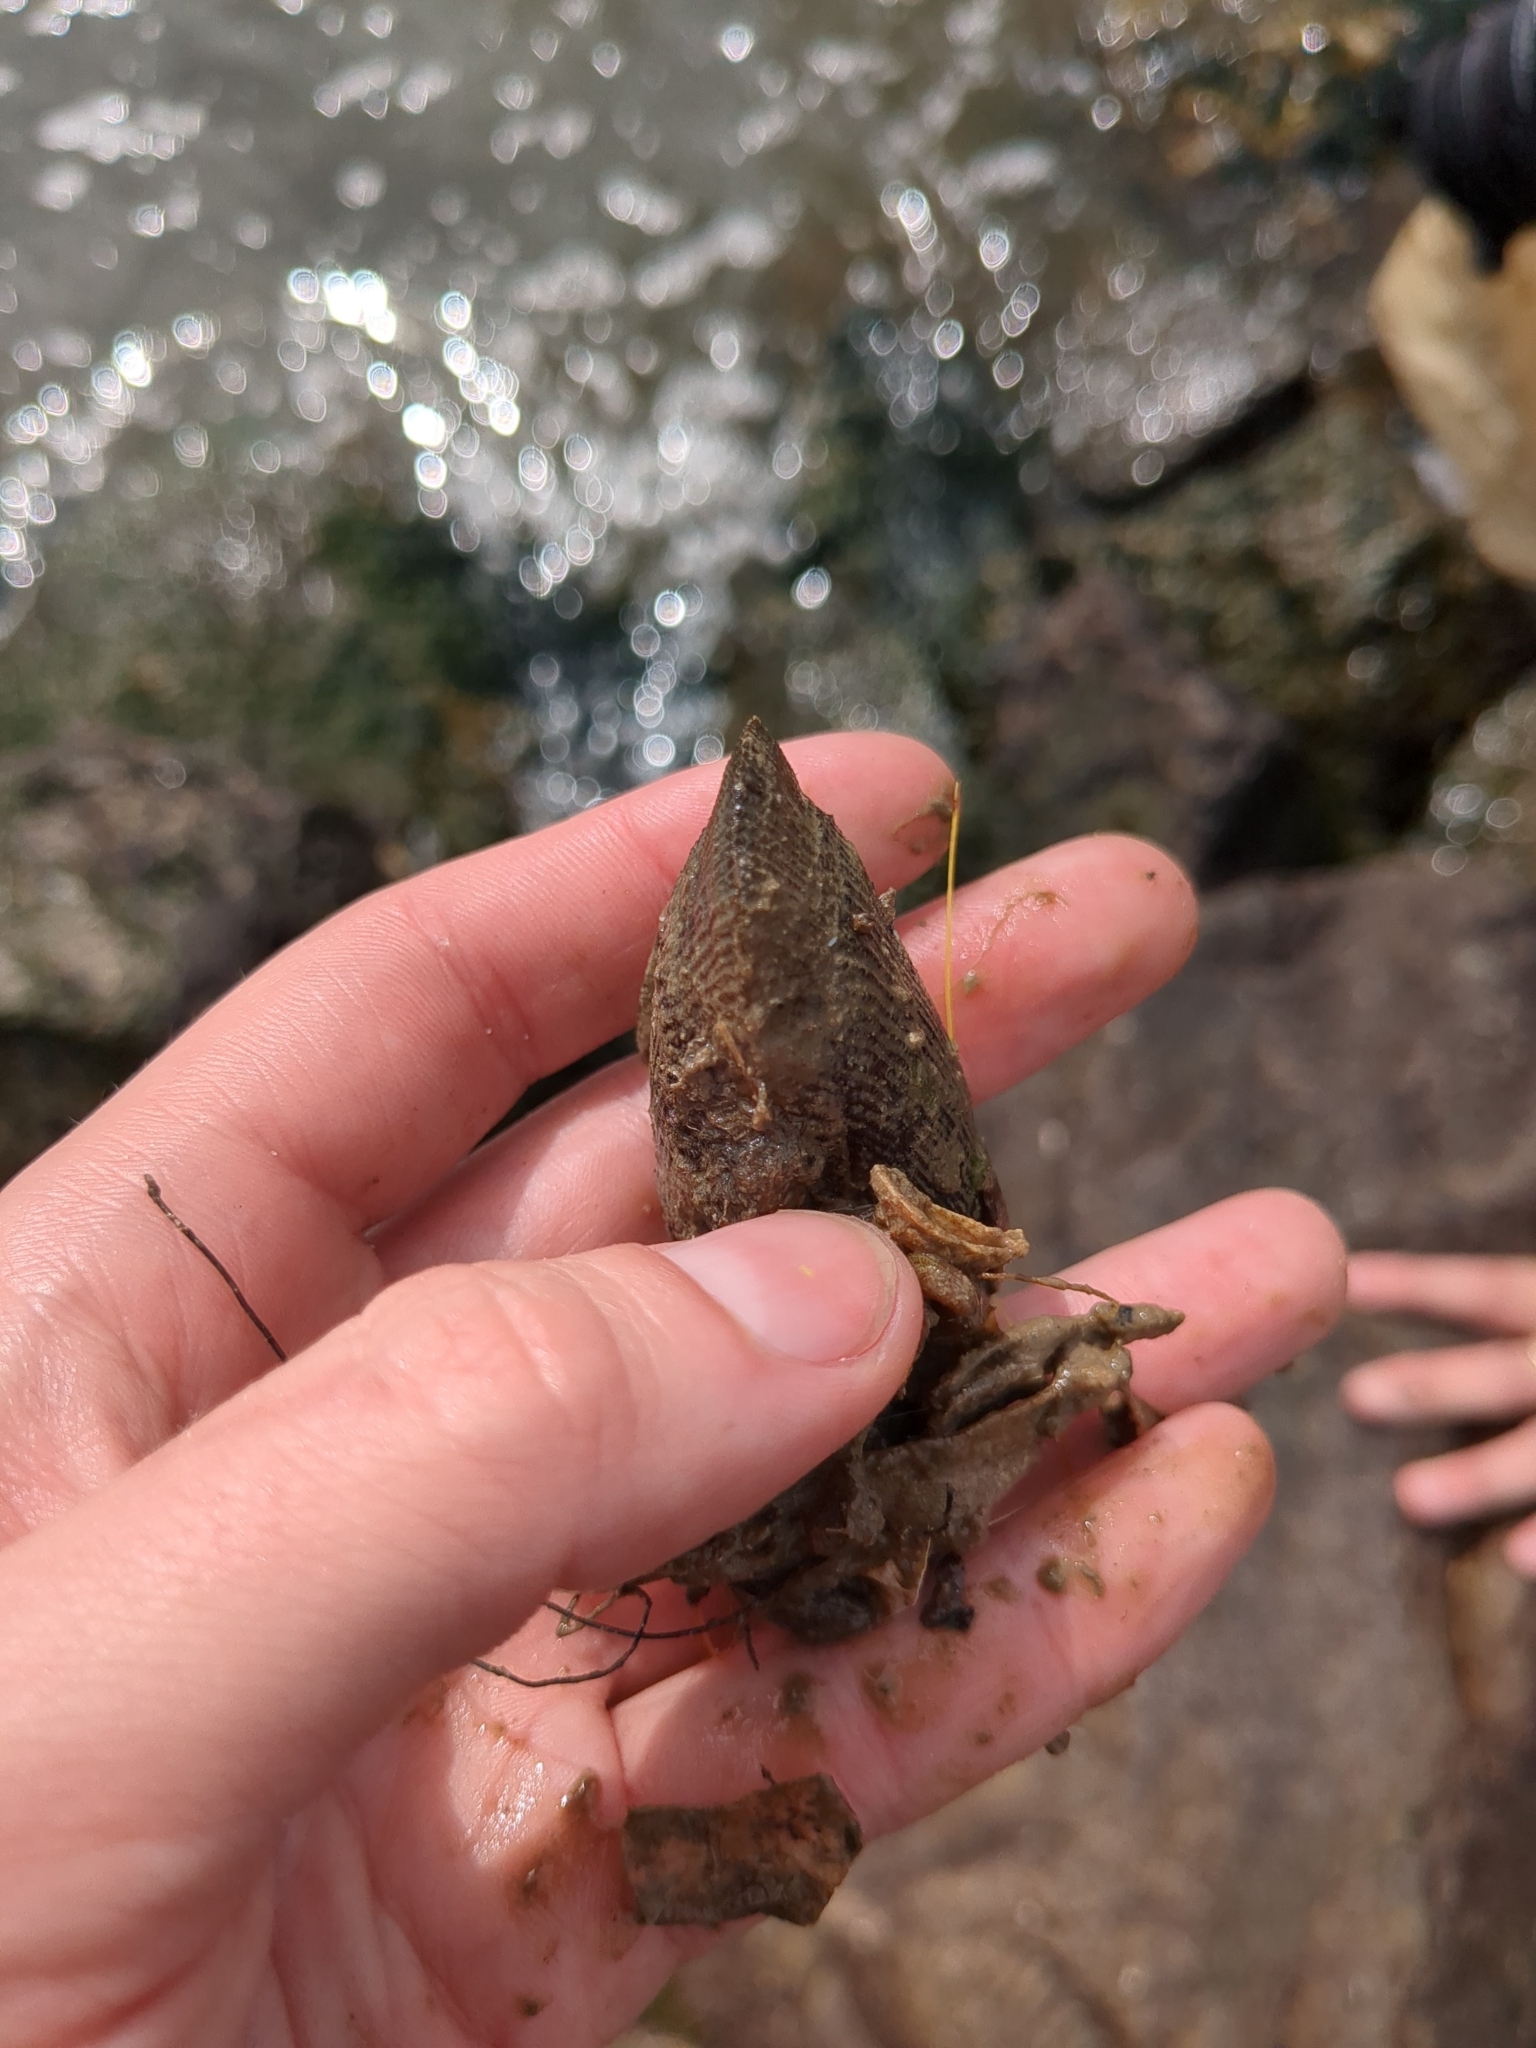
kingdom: Animalia
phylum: Mollusca
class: Bivalvia
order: Mytilida
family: Mytilidae
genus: Geukensia
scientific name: Geukensia granosissima
